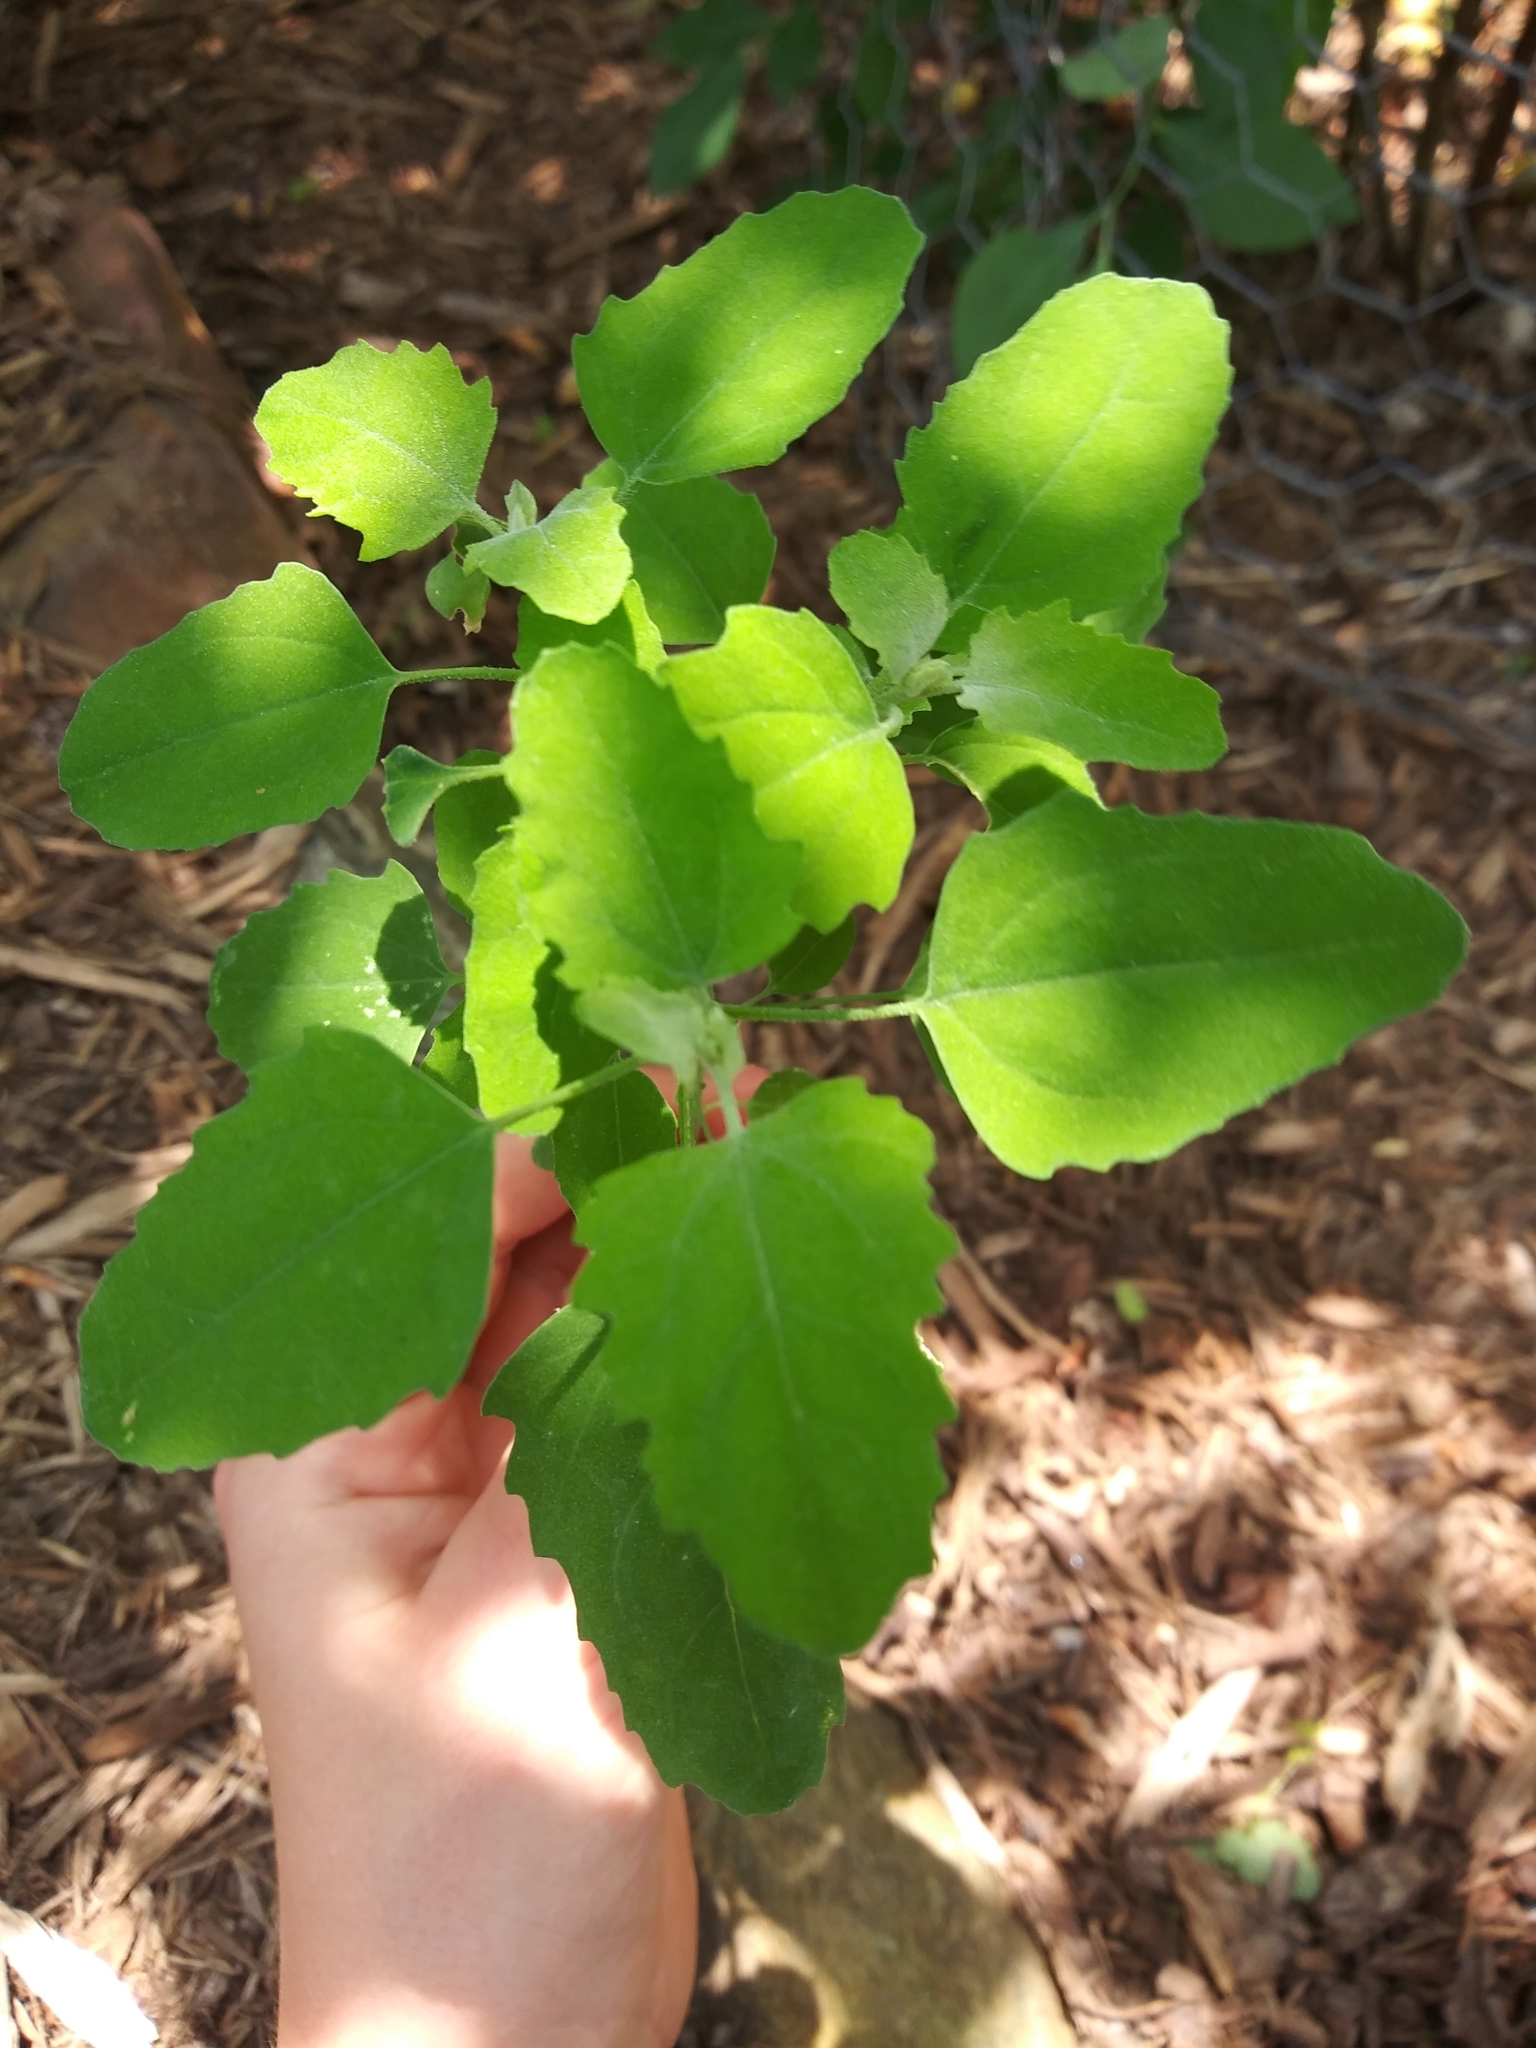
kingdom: Plantae
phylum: Tracheophyta
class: Magnoliopsida
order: Caryophyllales
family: Amaranthaceae
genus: Chenopodium
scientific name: Chenopodium album
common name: Fat-hen
